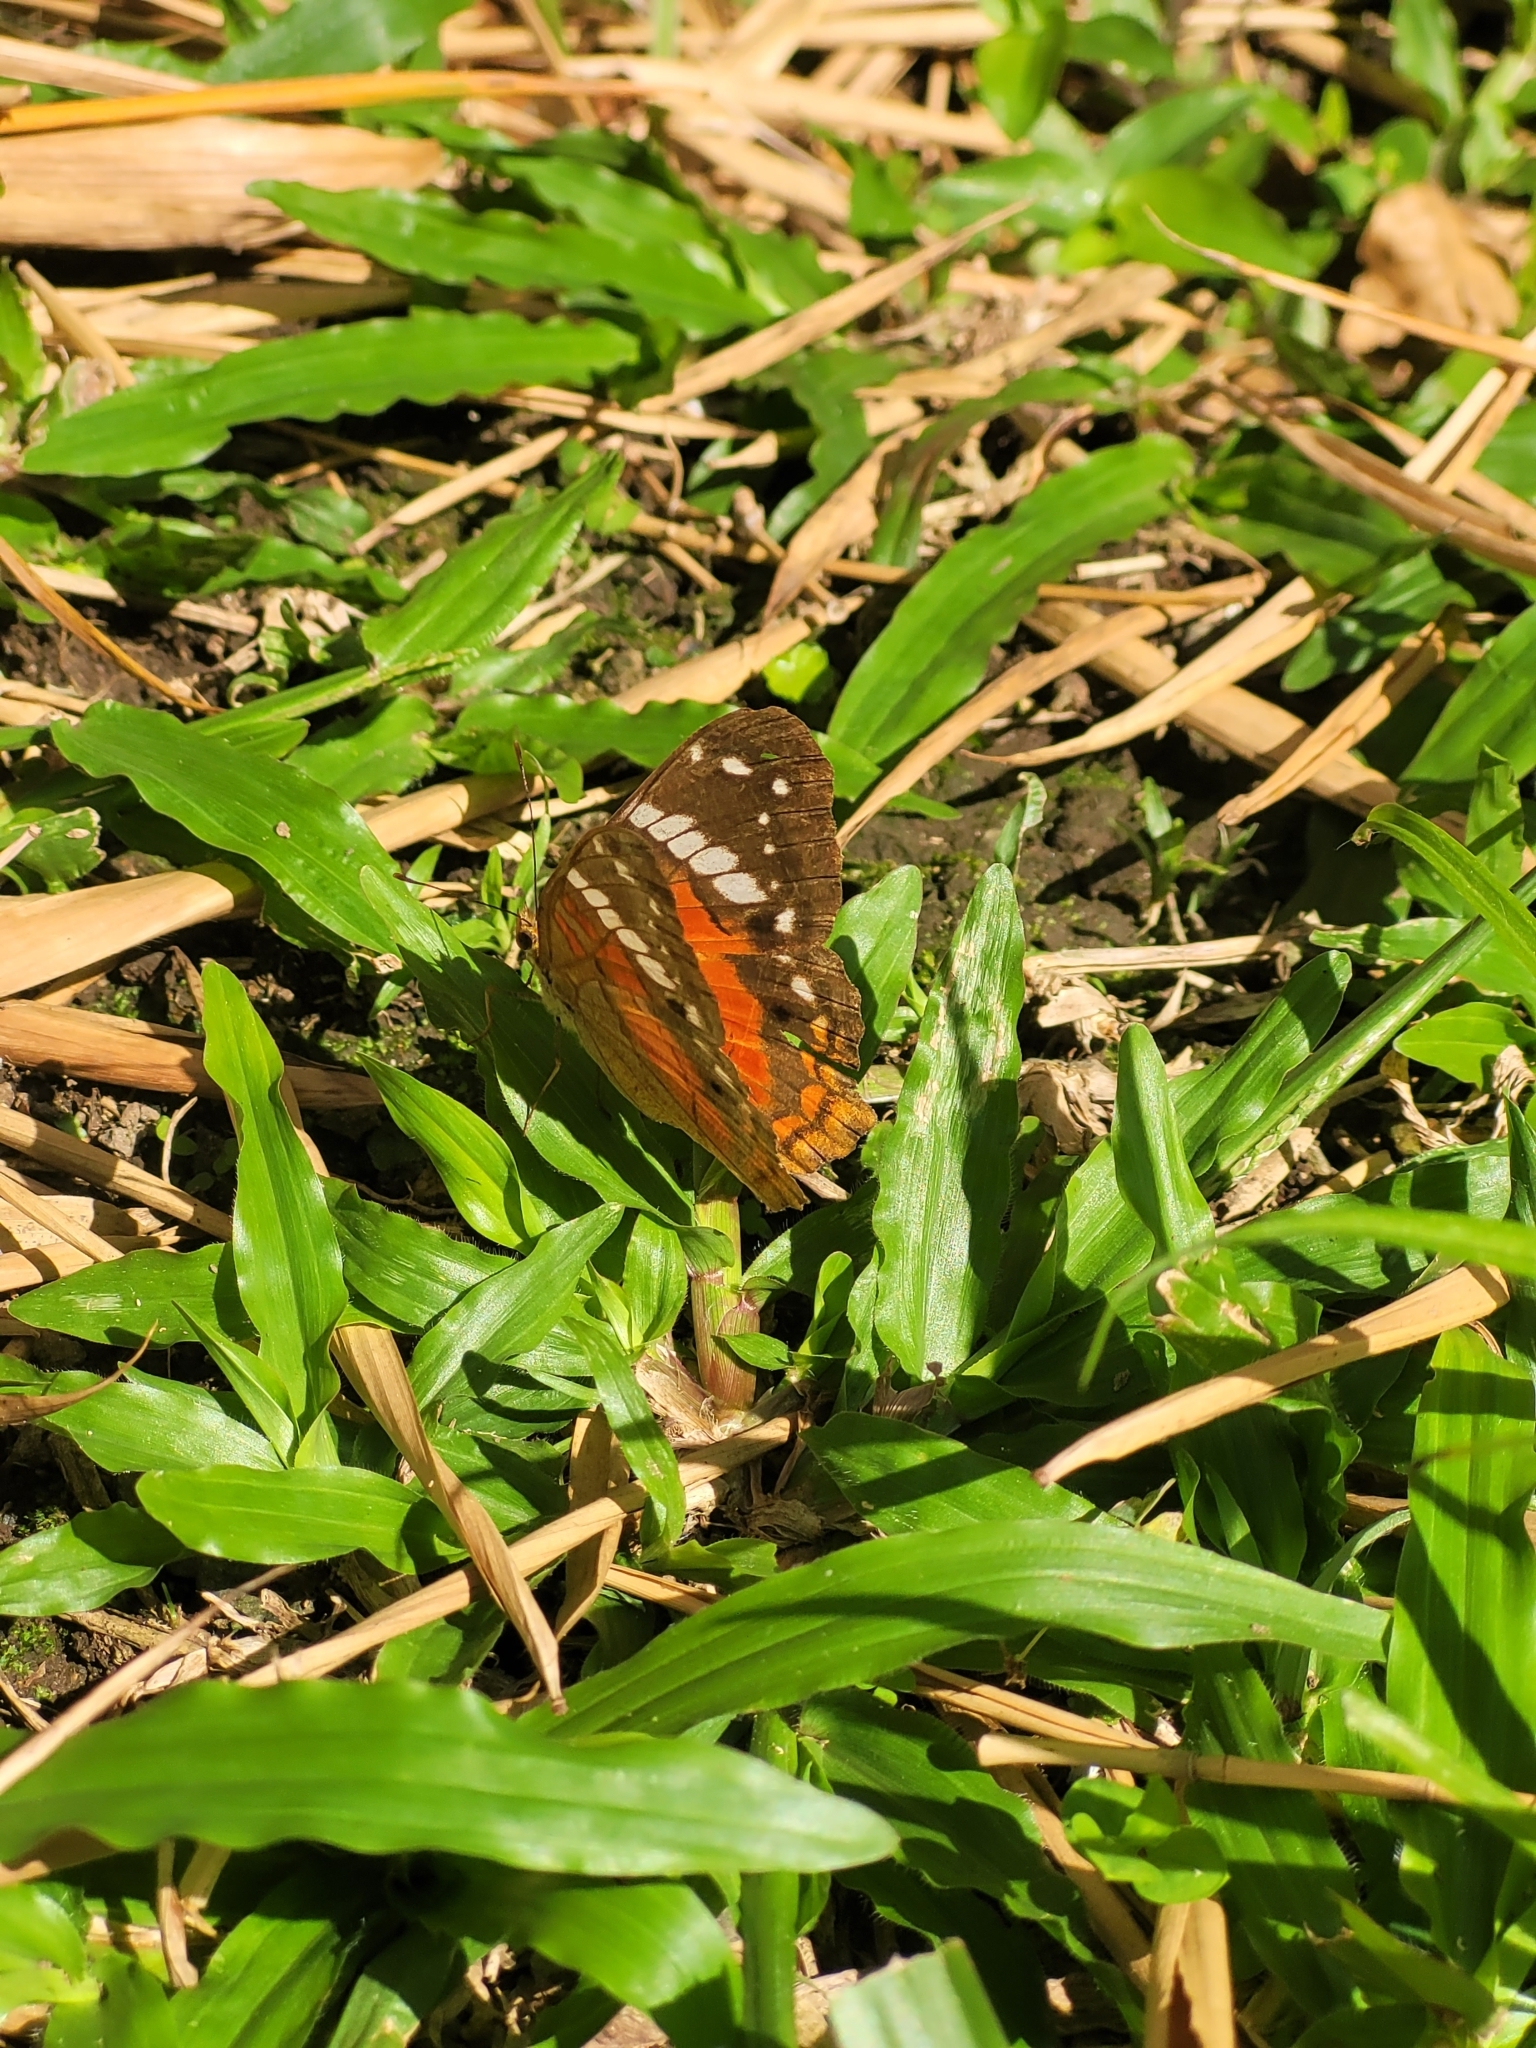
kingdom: Animalia
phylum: Arthropoda
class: Insecta
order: Lepidoptera
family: Nymphalidae
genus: Anartia
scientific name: Anartia amathea
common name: Red peacock
